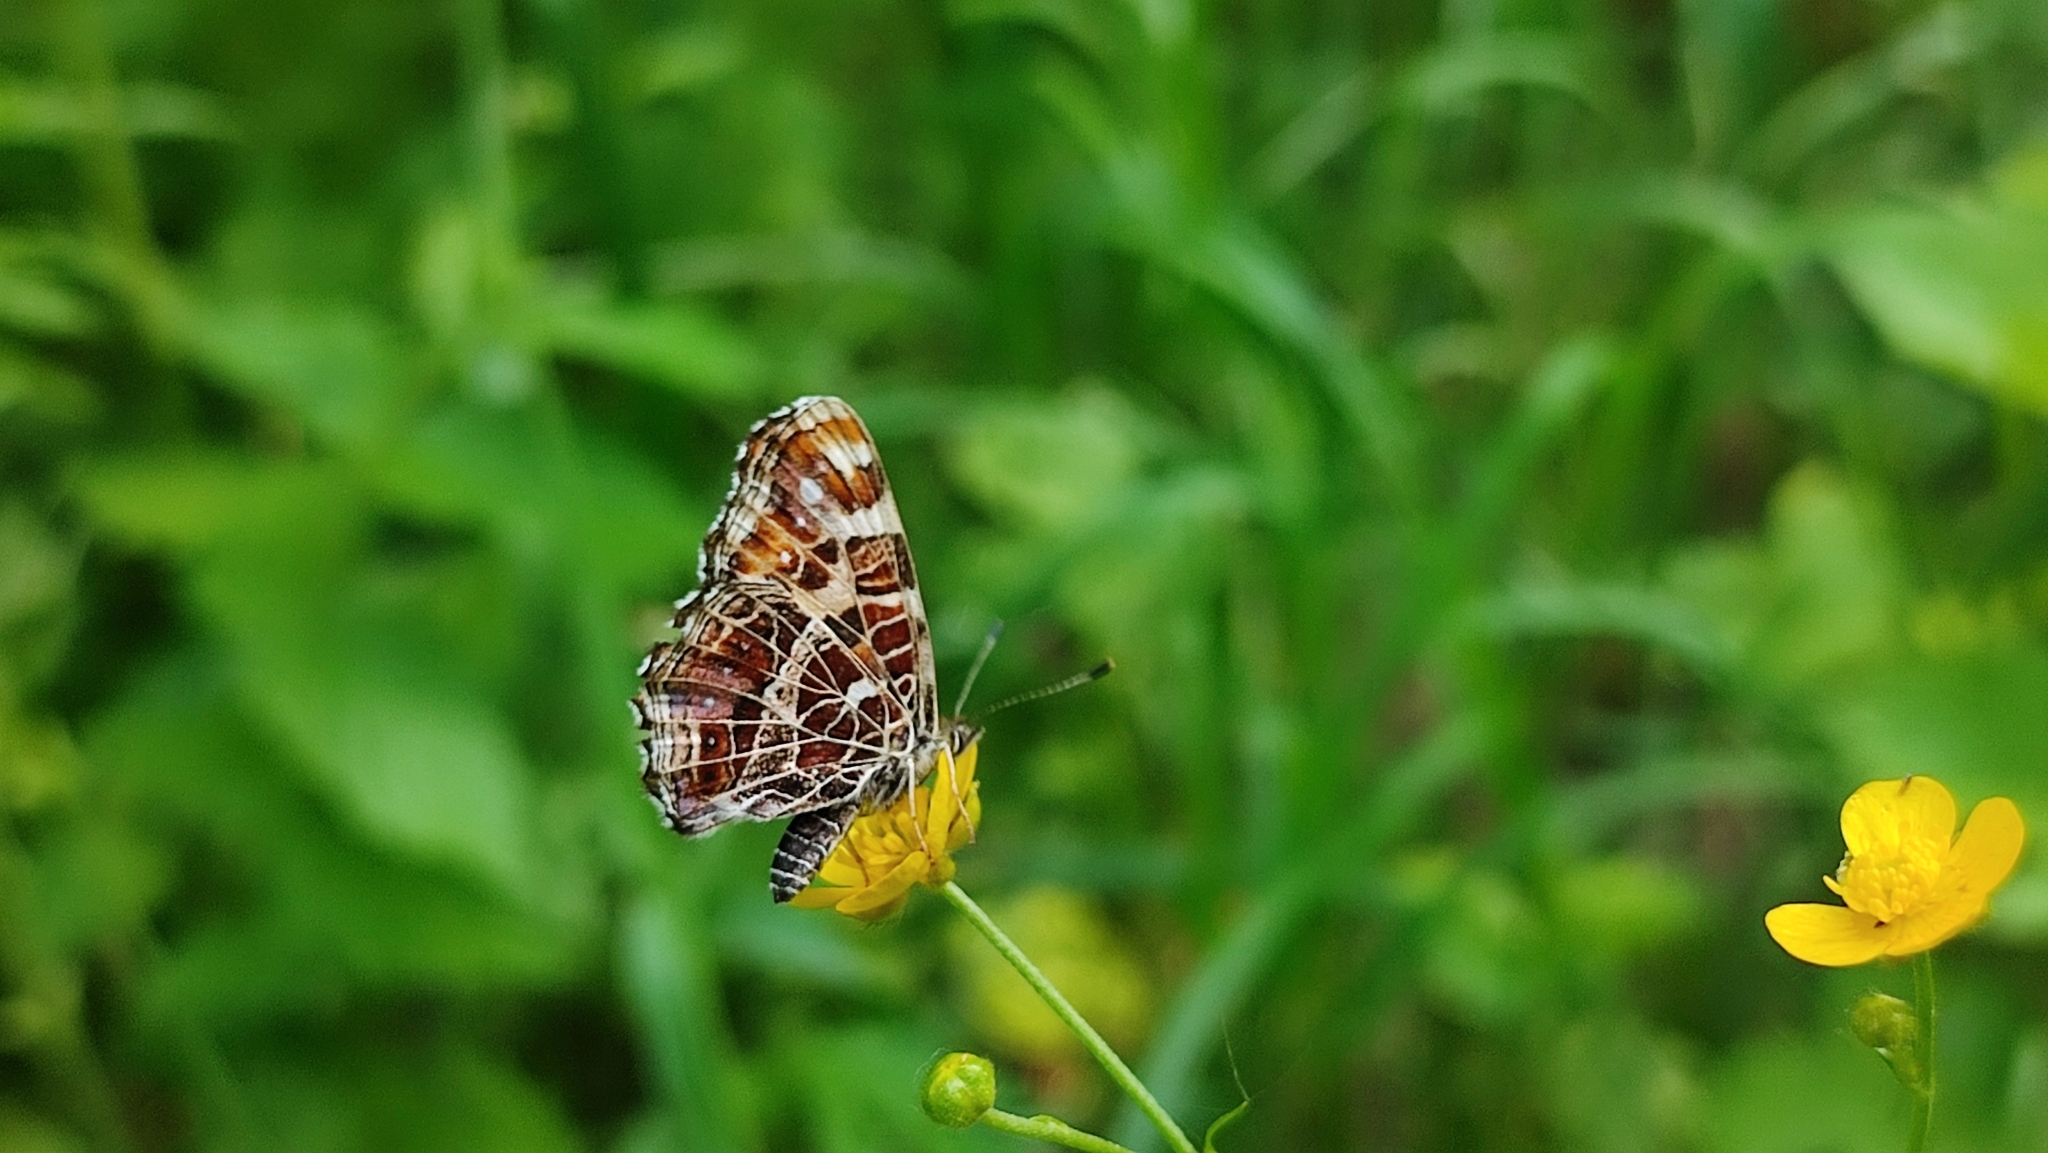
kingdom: Animalia
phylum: Arthropoda
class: Insecta
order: Lepidoptera
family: Nymphalidae
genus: Araschnia
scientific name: Araschnia levana
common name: Map butterfly
